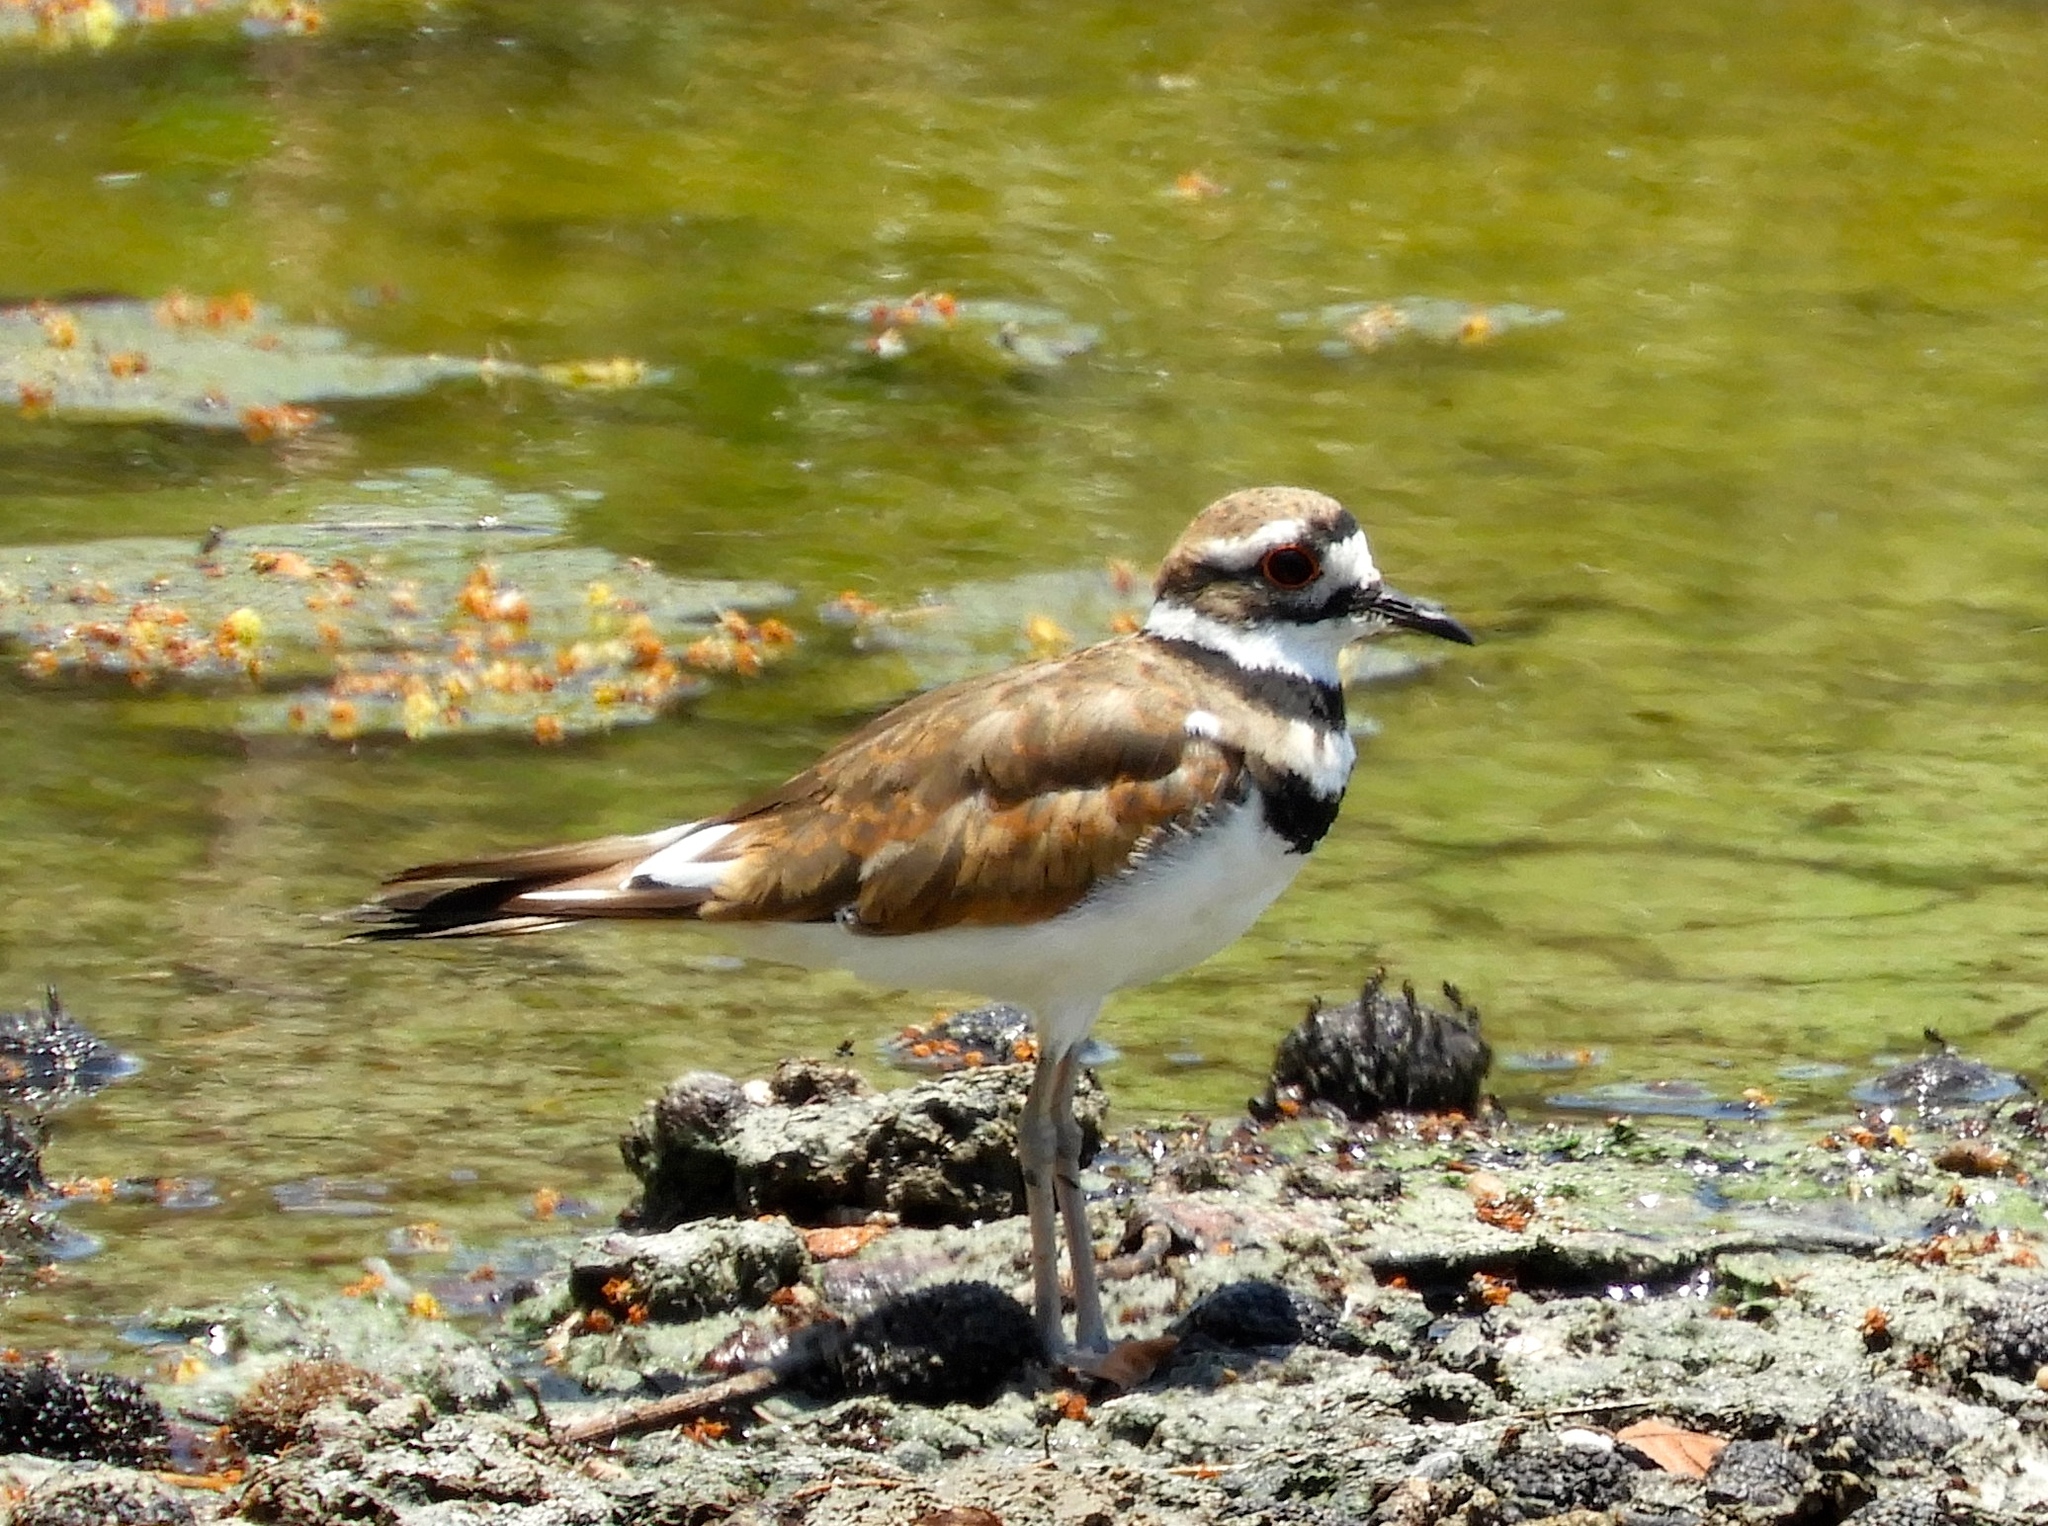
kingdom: Animalia
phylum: Chordata
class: Aves
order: Charadriiformes
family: Charadriidae
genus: Charadrius
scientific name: Charadrius vociferus
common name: Killdeer
